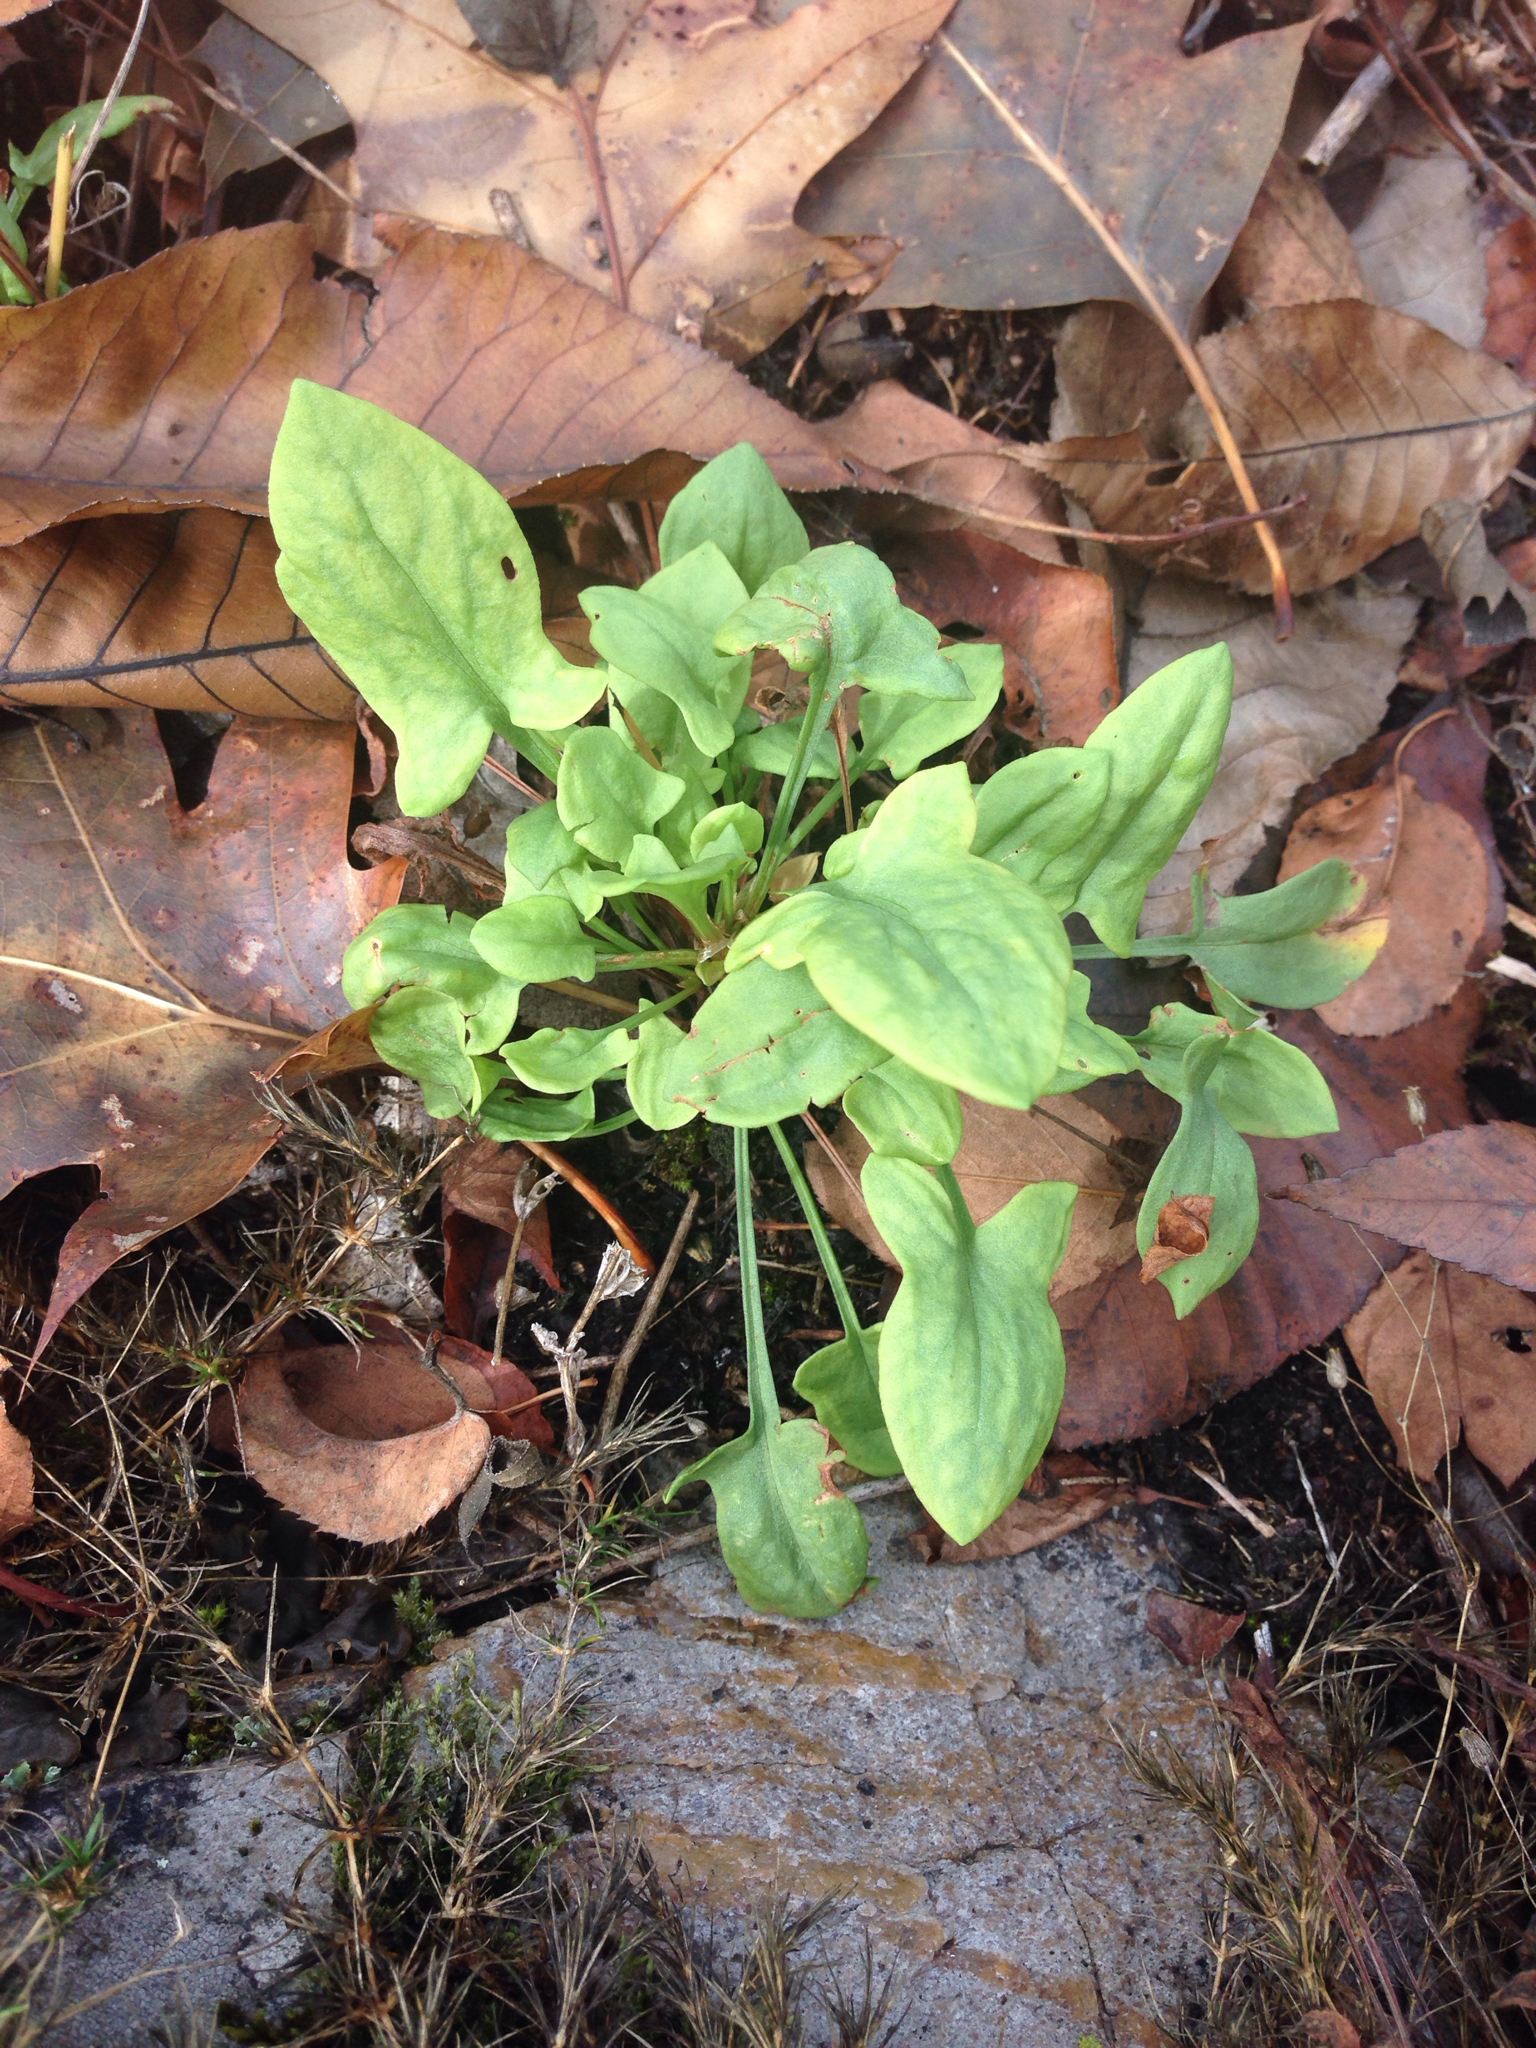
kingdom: Plantae
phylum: Tracheophyta
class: Magnoliopsida
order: Caryophyllales
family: Polygonaceae
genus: Rumex
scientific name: Rumex acetosella
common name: Common sheep sorrel
